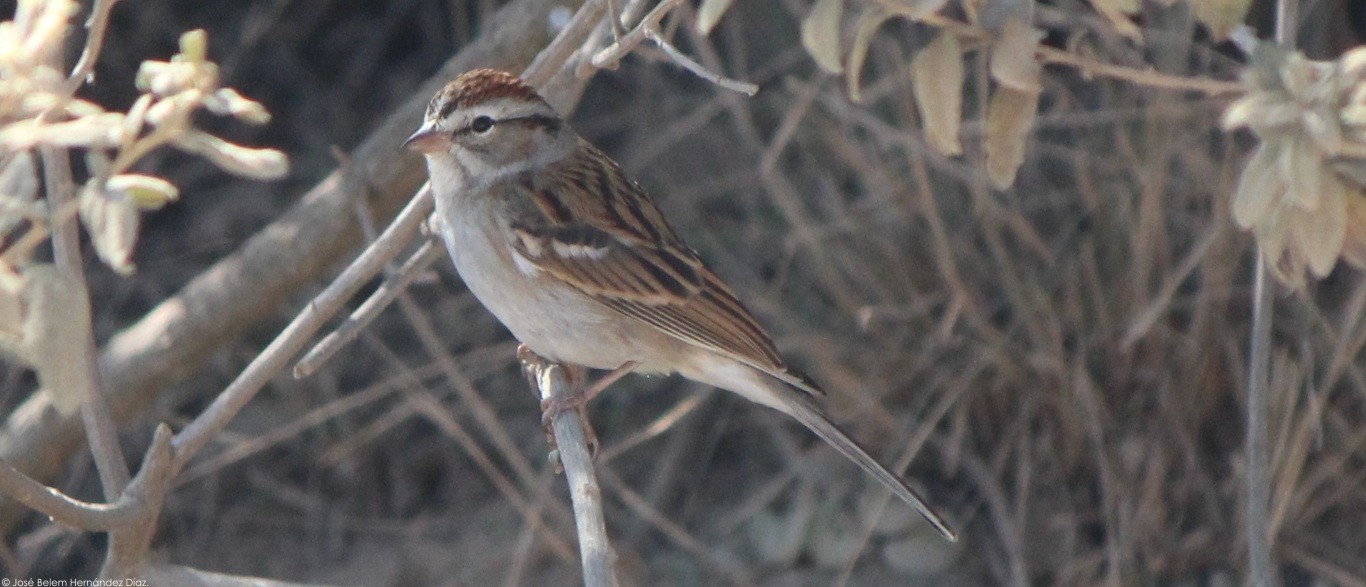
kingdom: Animalia
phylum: Chordata
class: Aves
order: Passeriformes
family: Passerellidae
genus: Spizella
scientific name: Spizella passerina
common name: Chipping sparrow
